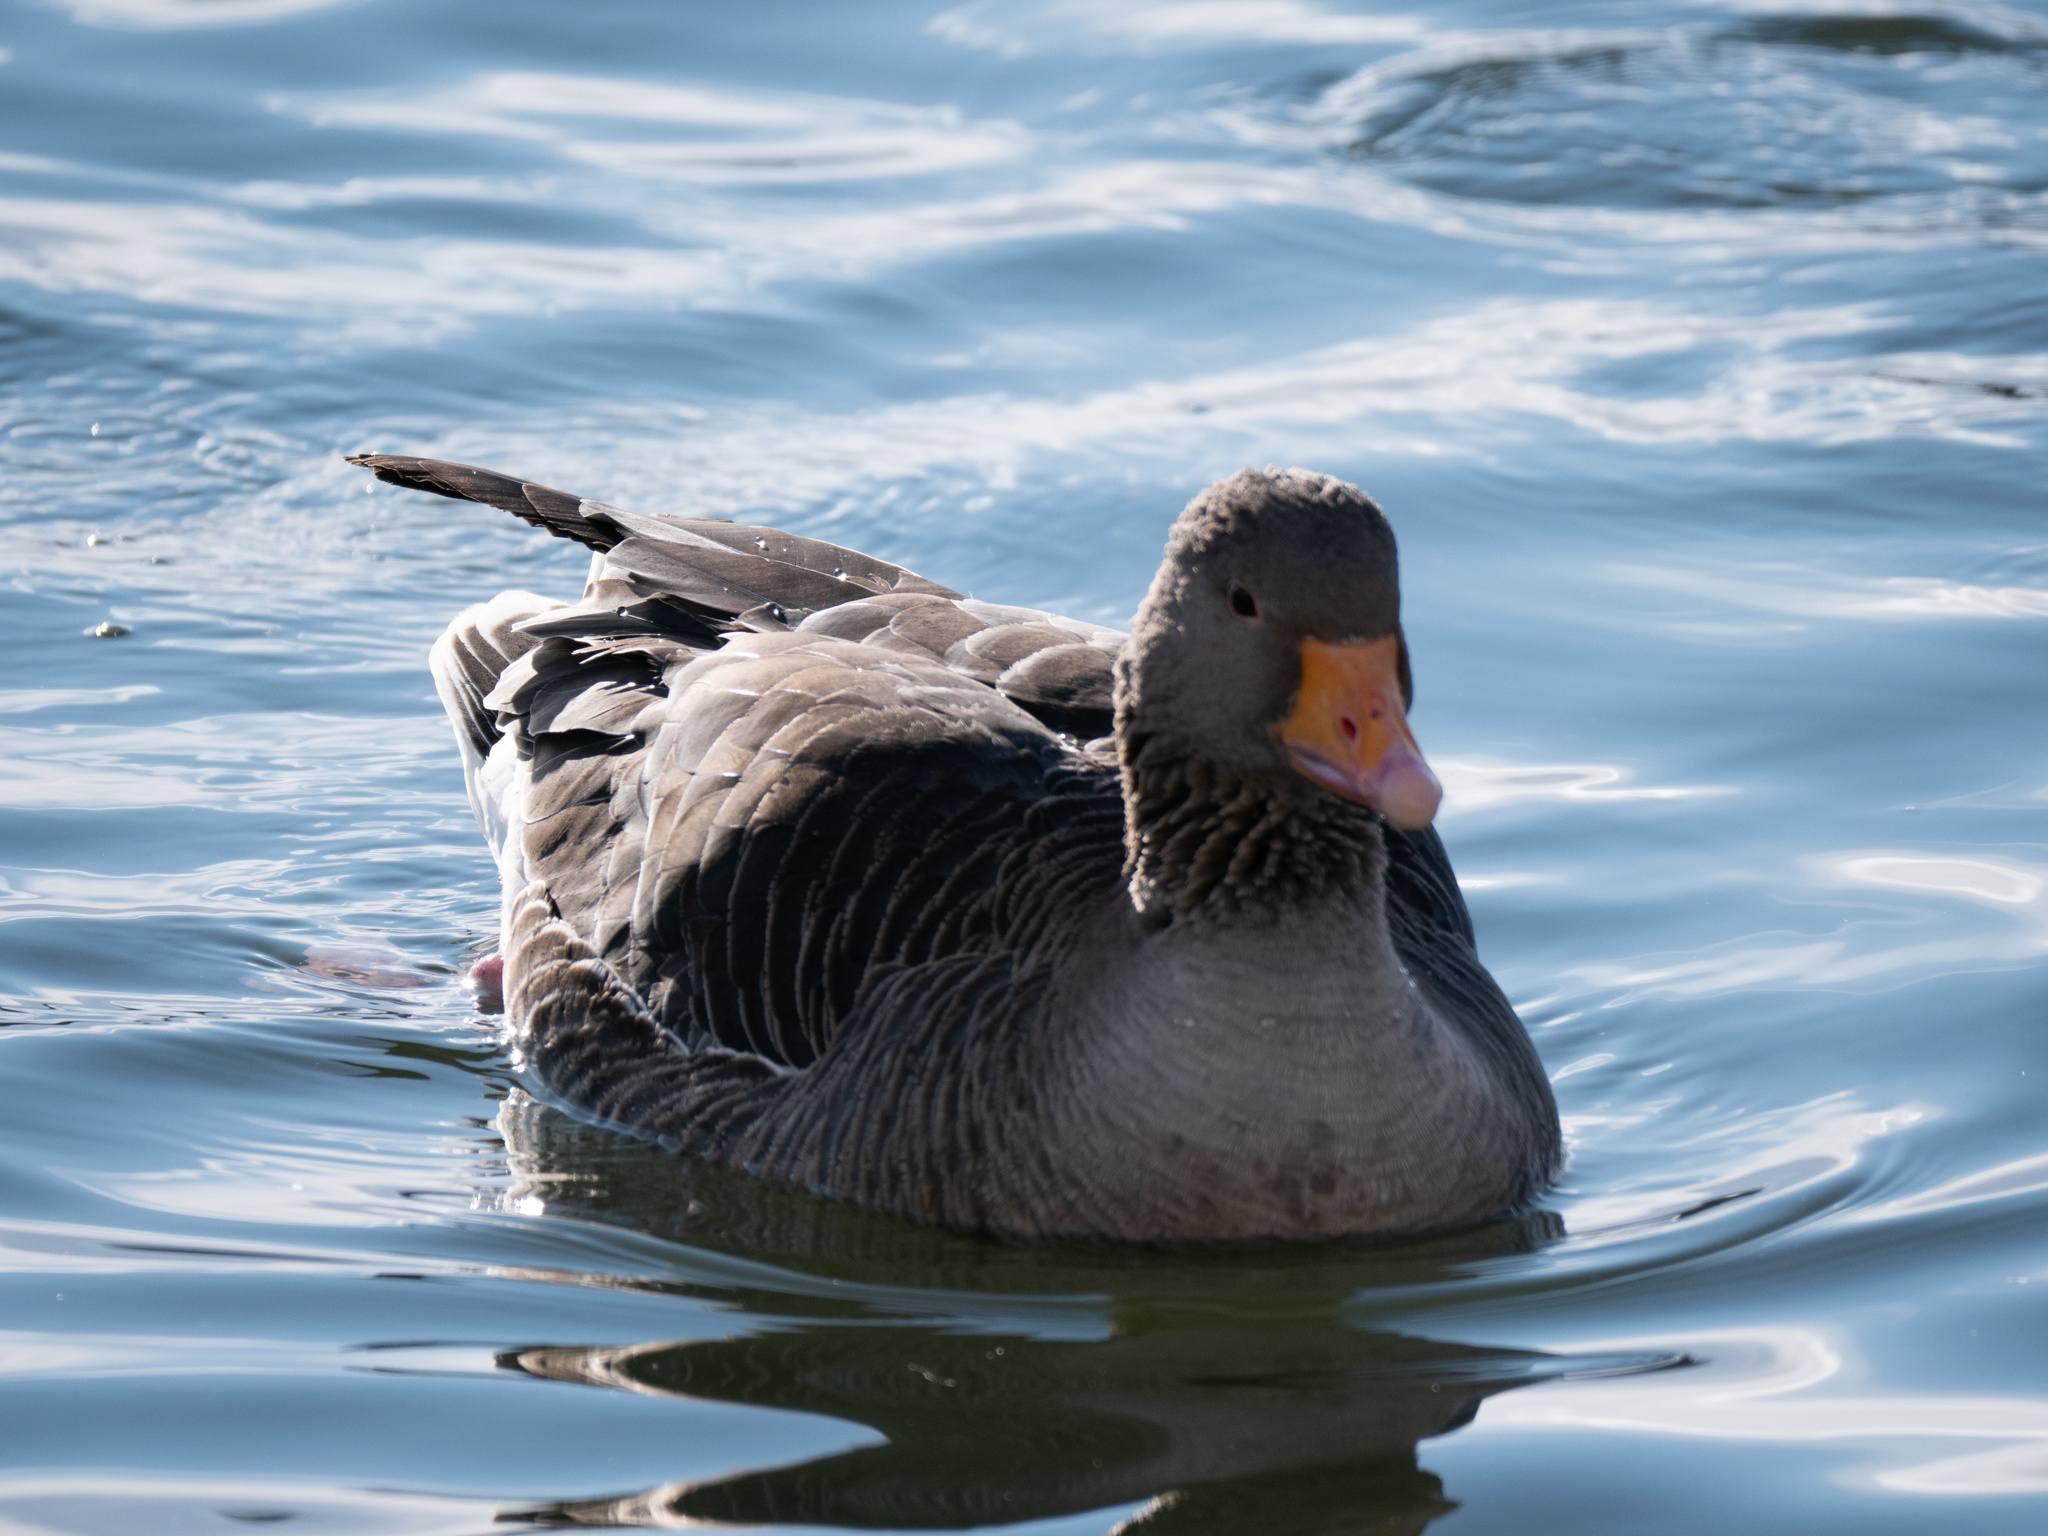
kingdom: Animalia
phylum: Chordata
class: Aves
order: Anseriformes
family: Anatidae
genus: Anser
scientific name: Anser anser
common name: Greylag goose
